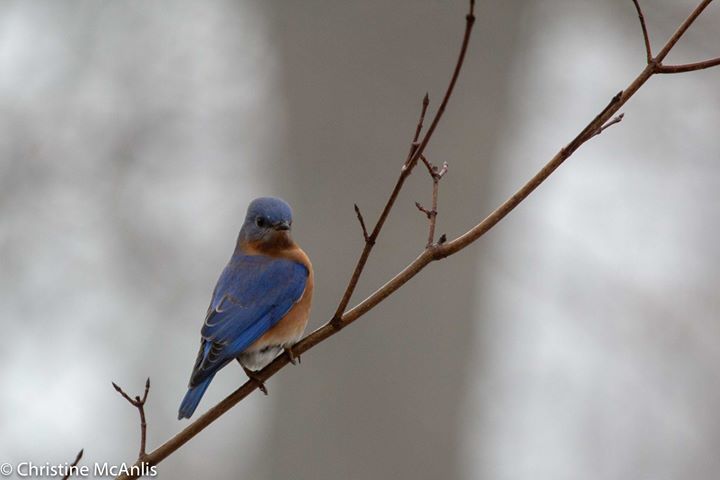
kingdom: Animalia
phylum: Chordata
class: Aves
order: Passeriformes
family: Turdidae
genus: Sialia
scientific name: Sialia sialis
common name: Eastern bluebird
